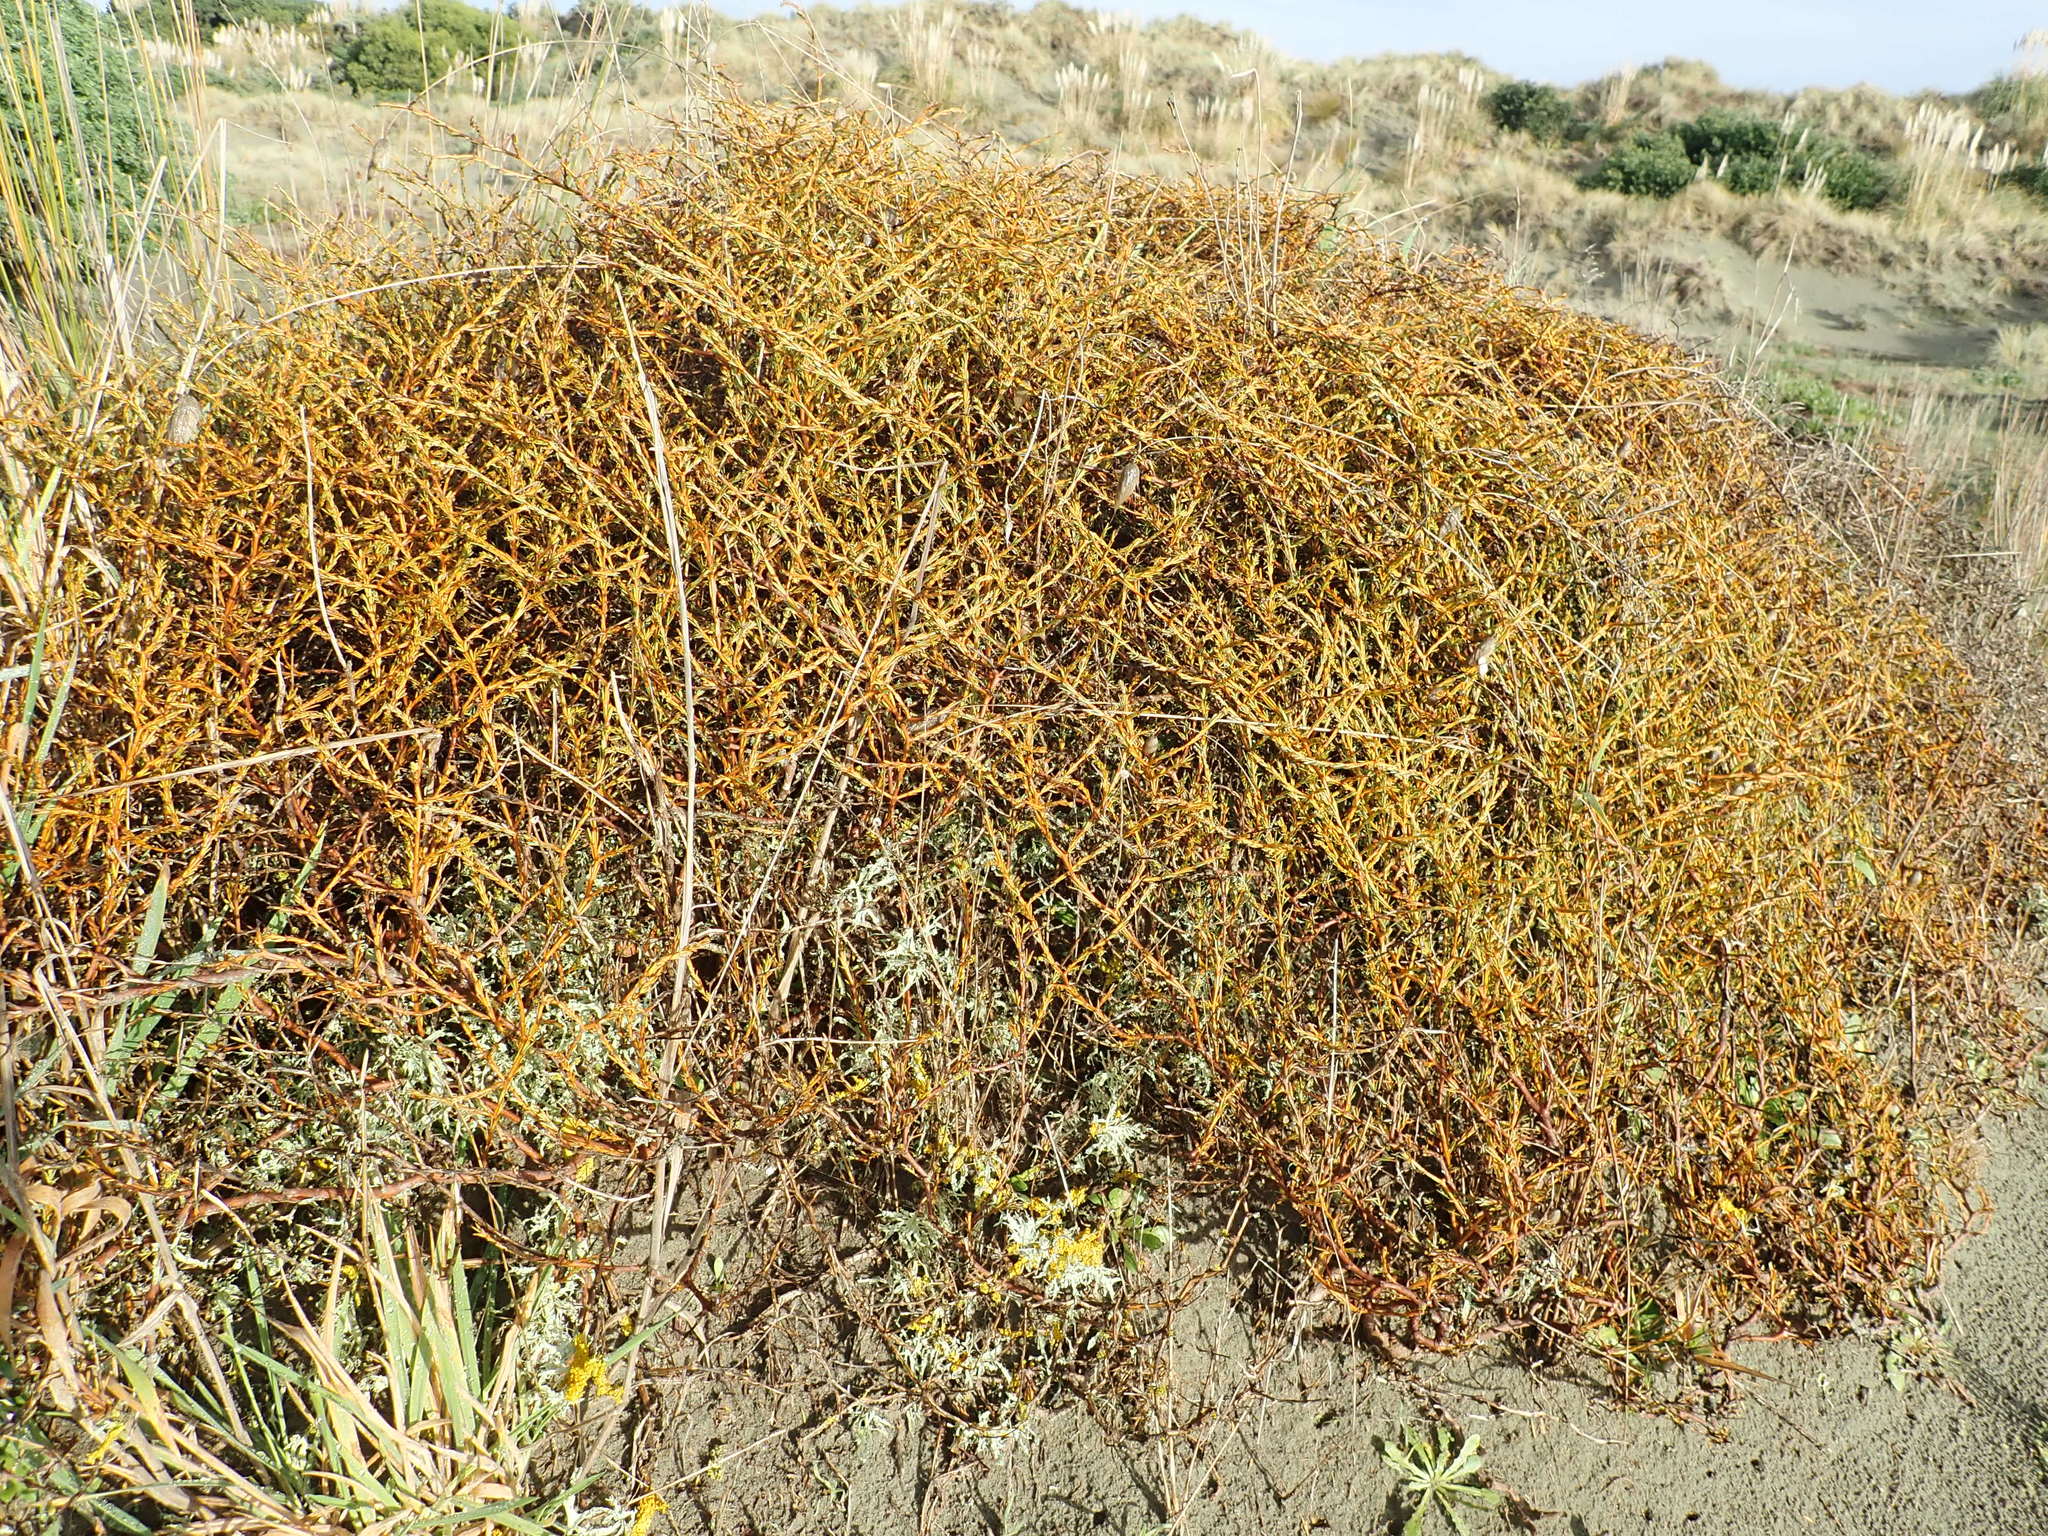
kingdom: Plantae
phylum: Tracheophyta
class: Magnoliopsida
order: Gentianales
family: Rubiaceae
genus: Coprosma
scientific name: Coprosma acerosa
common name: Sand coprosma
